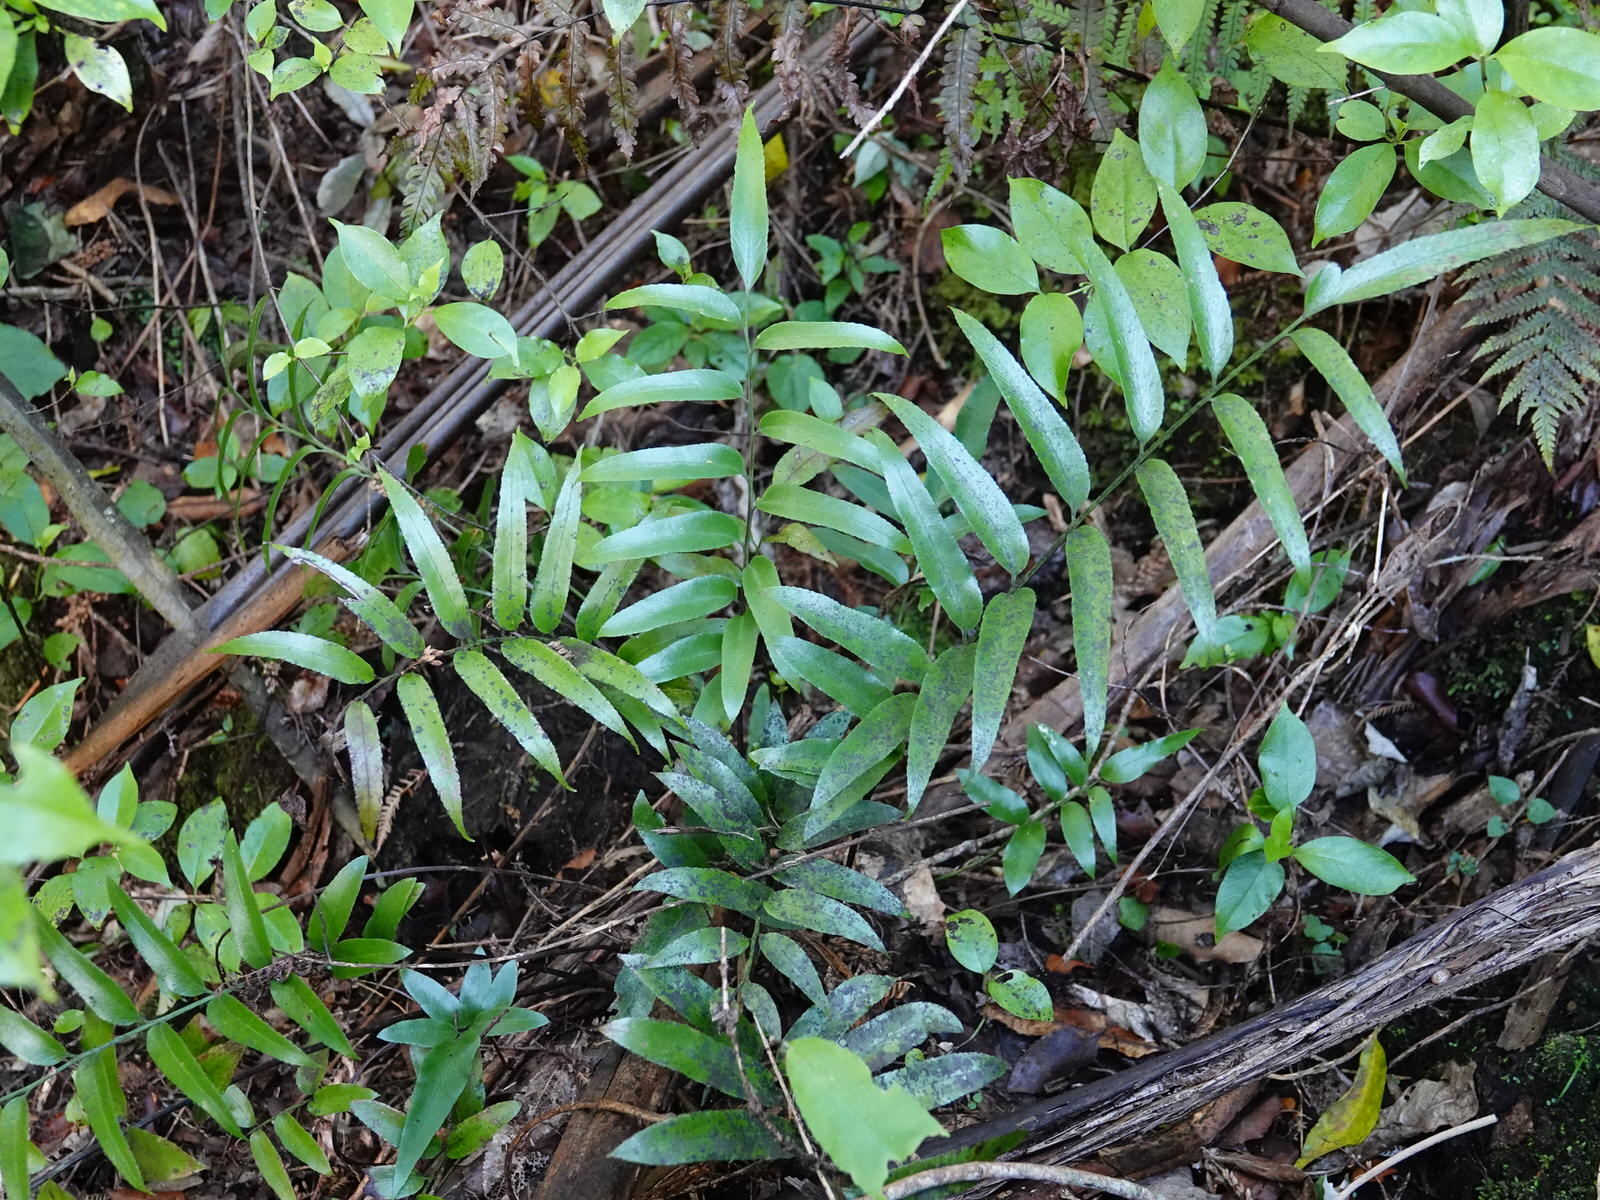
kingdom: Plantae
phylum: Tracheophyta
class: Polypodiopsida
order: Polypodiales
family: Aspleniaceae
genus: Asplenium
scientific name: Asplenium oblongifolium
